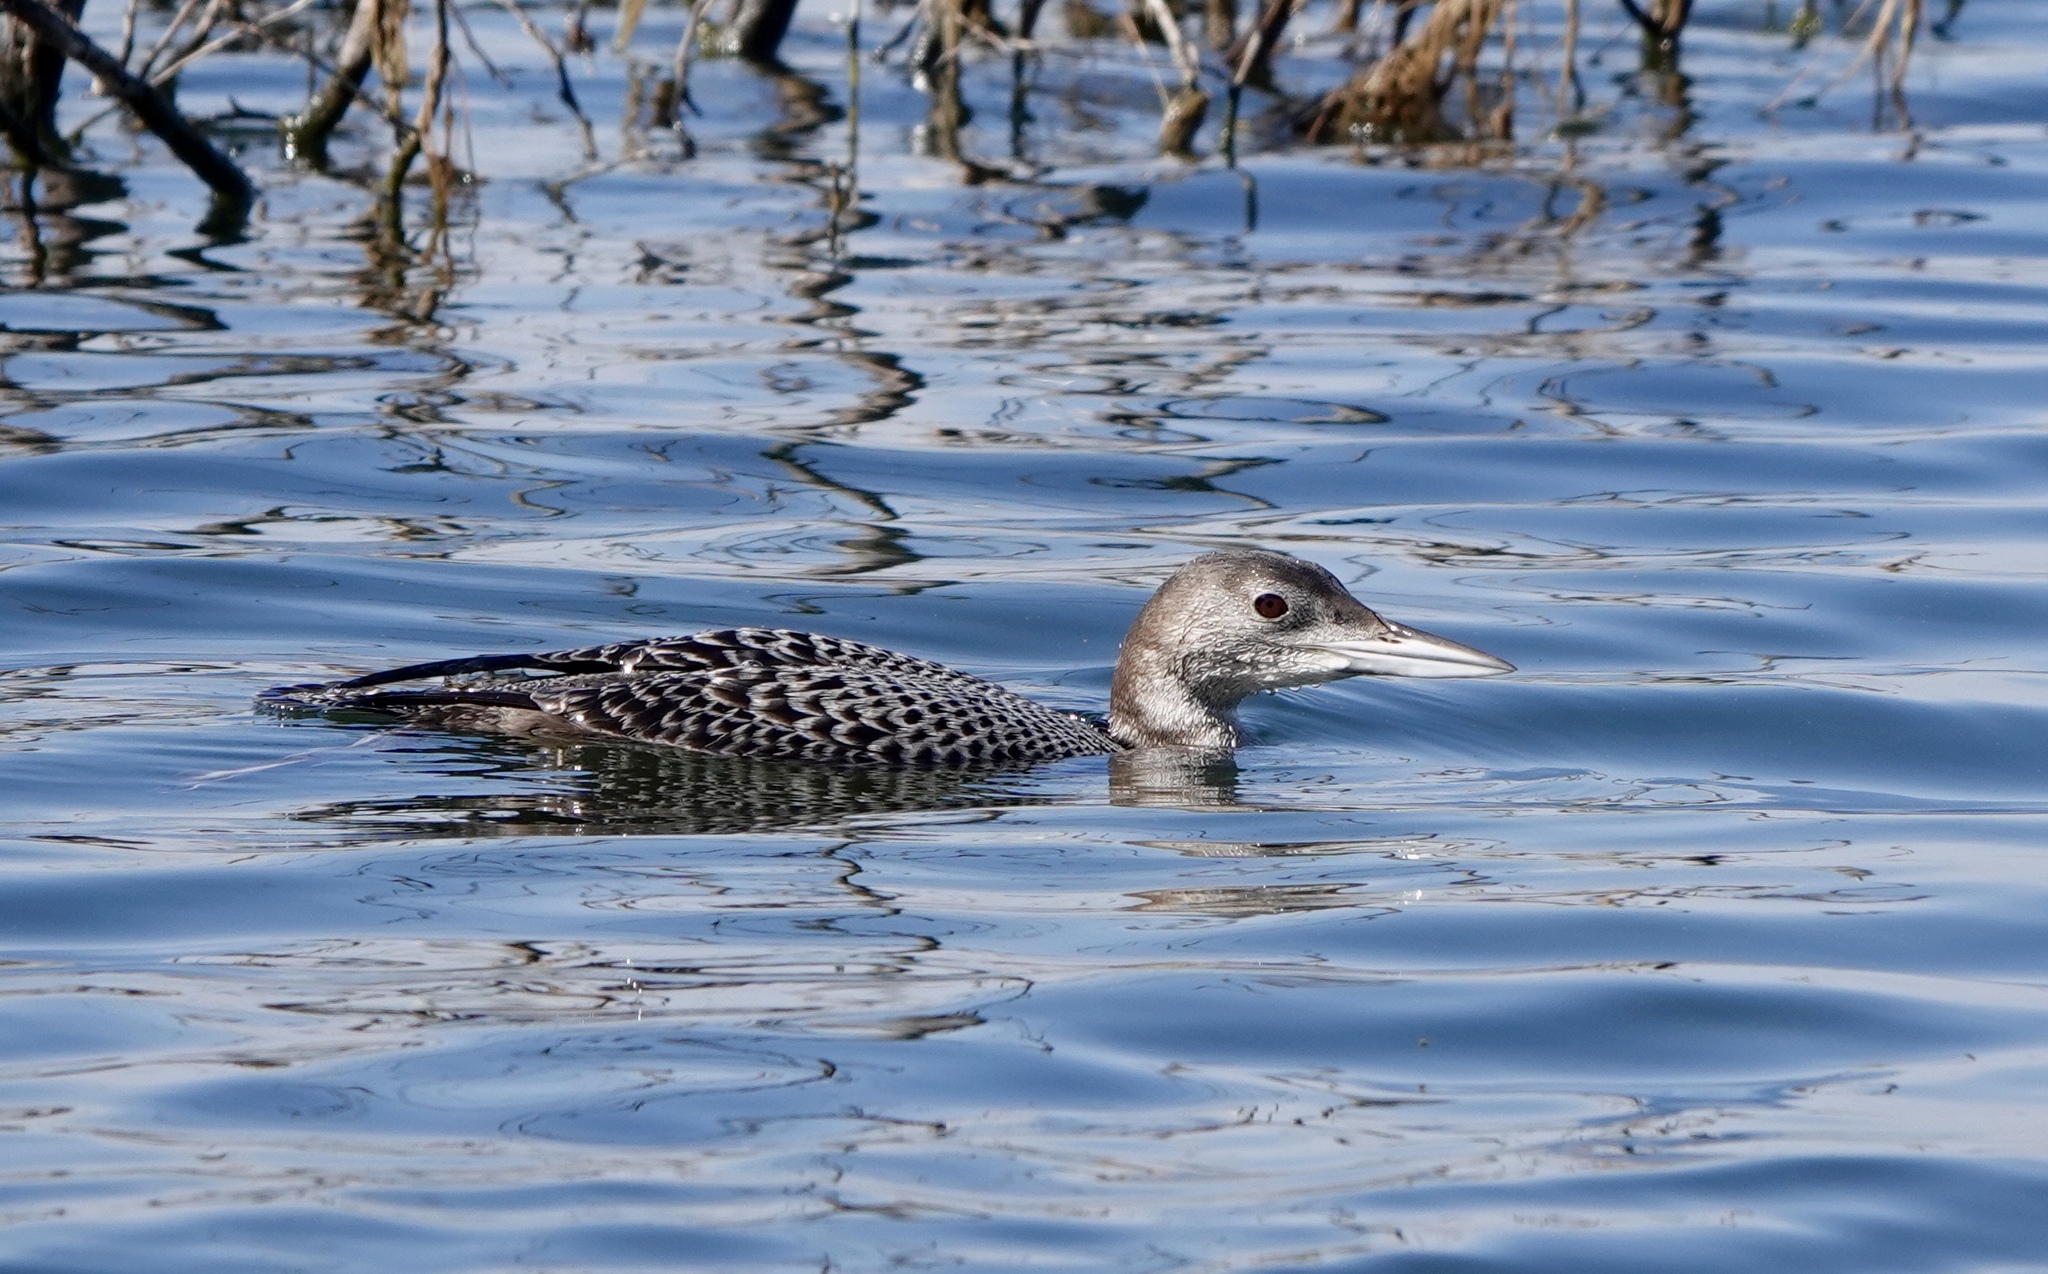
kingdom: Animalia
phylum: Chordata
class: Aves
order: Gaviiformes
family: Gaviidae
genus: Gavia
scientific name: Gavia immer
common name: Common loon
